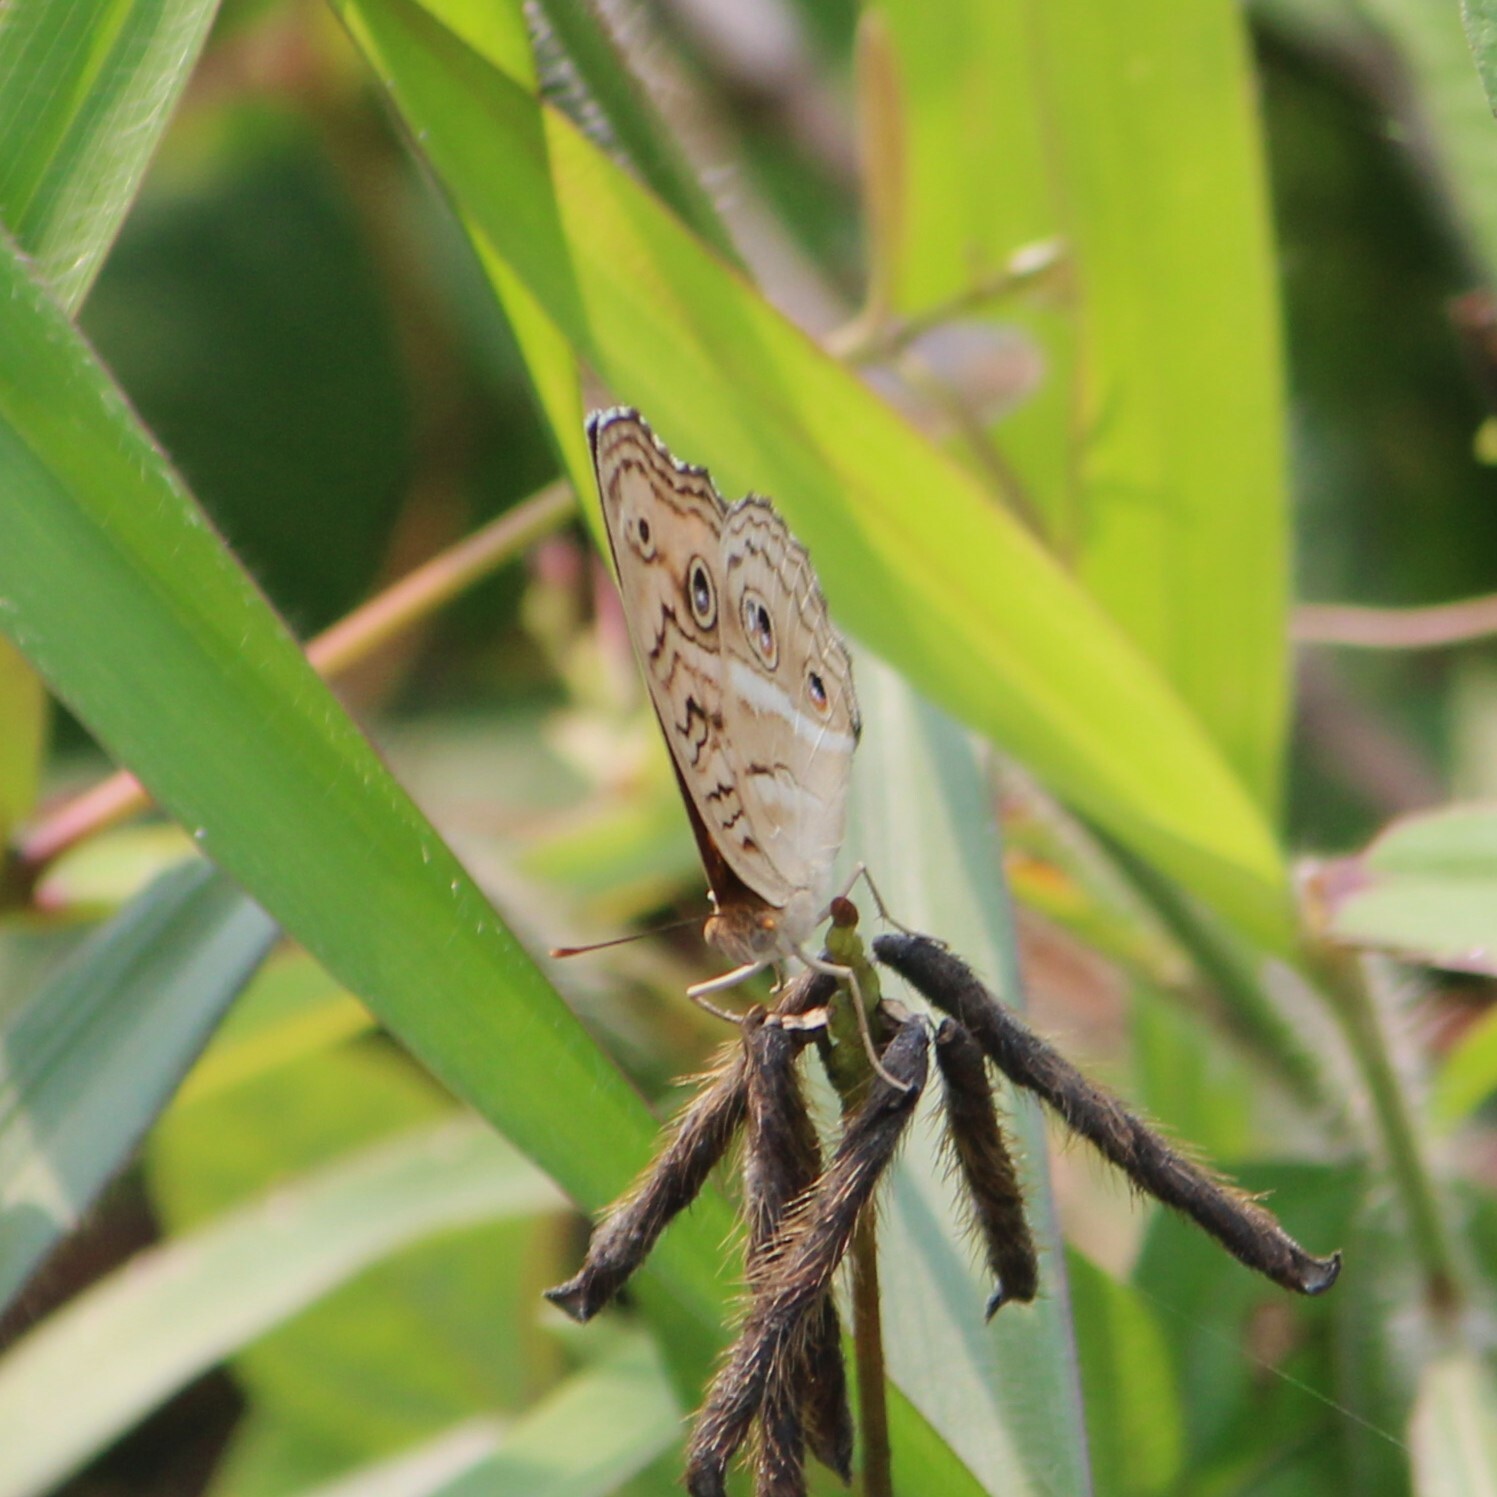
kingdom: Animalia
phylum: Arthropoda
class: Insecta
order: Lepidoptera
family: Nymphalidae
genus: Junonia
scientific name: Junonia almana
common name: Peacock pansy
